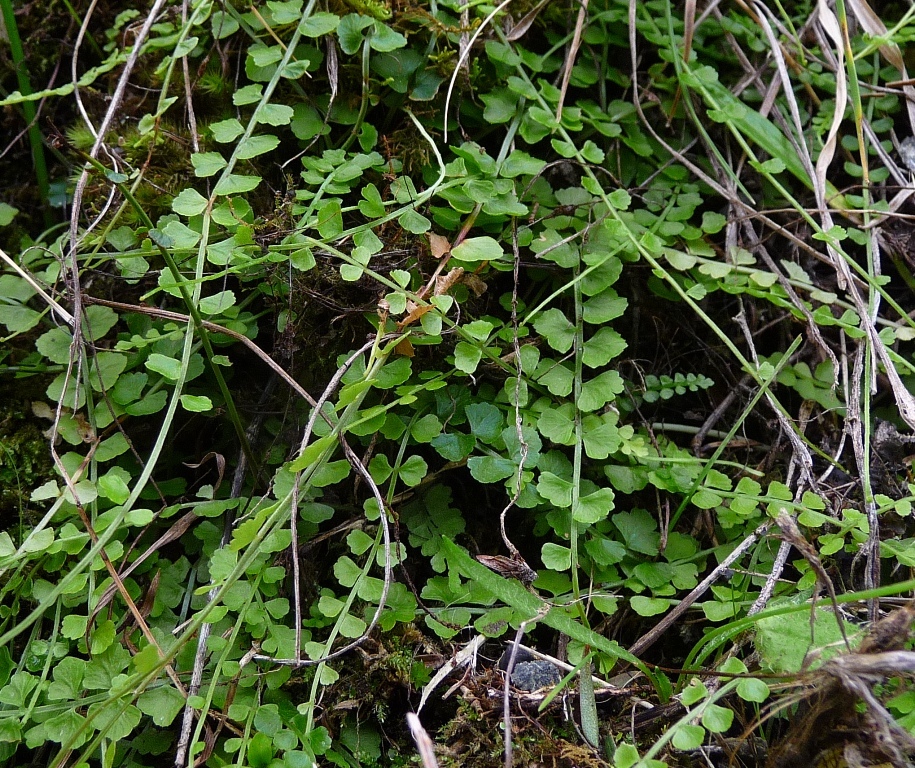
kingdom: Plantae
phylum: Tracheophyta
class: Polypodiopsida
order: Polypodiales
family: Aspleniaceae
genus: Asplenium
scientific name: Asplenium flabellifolium
